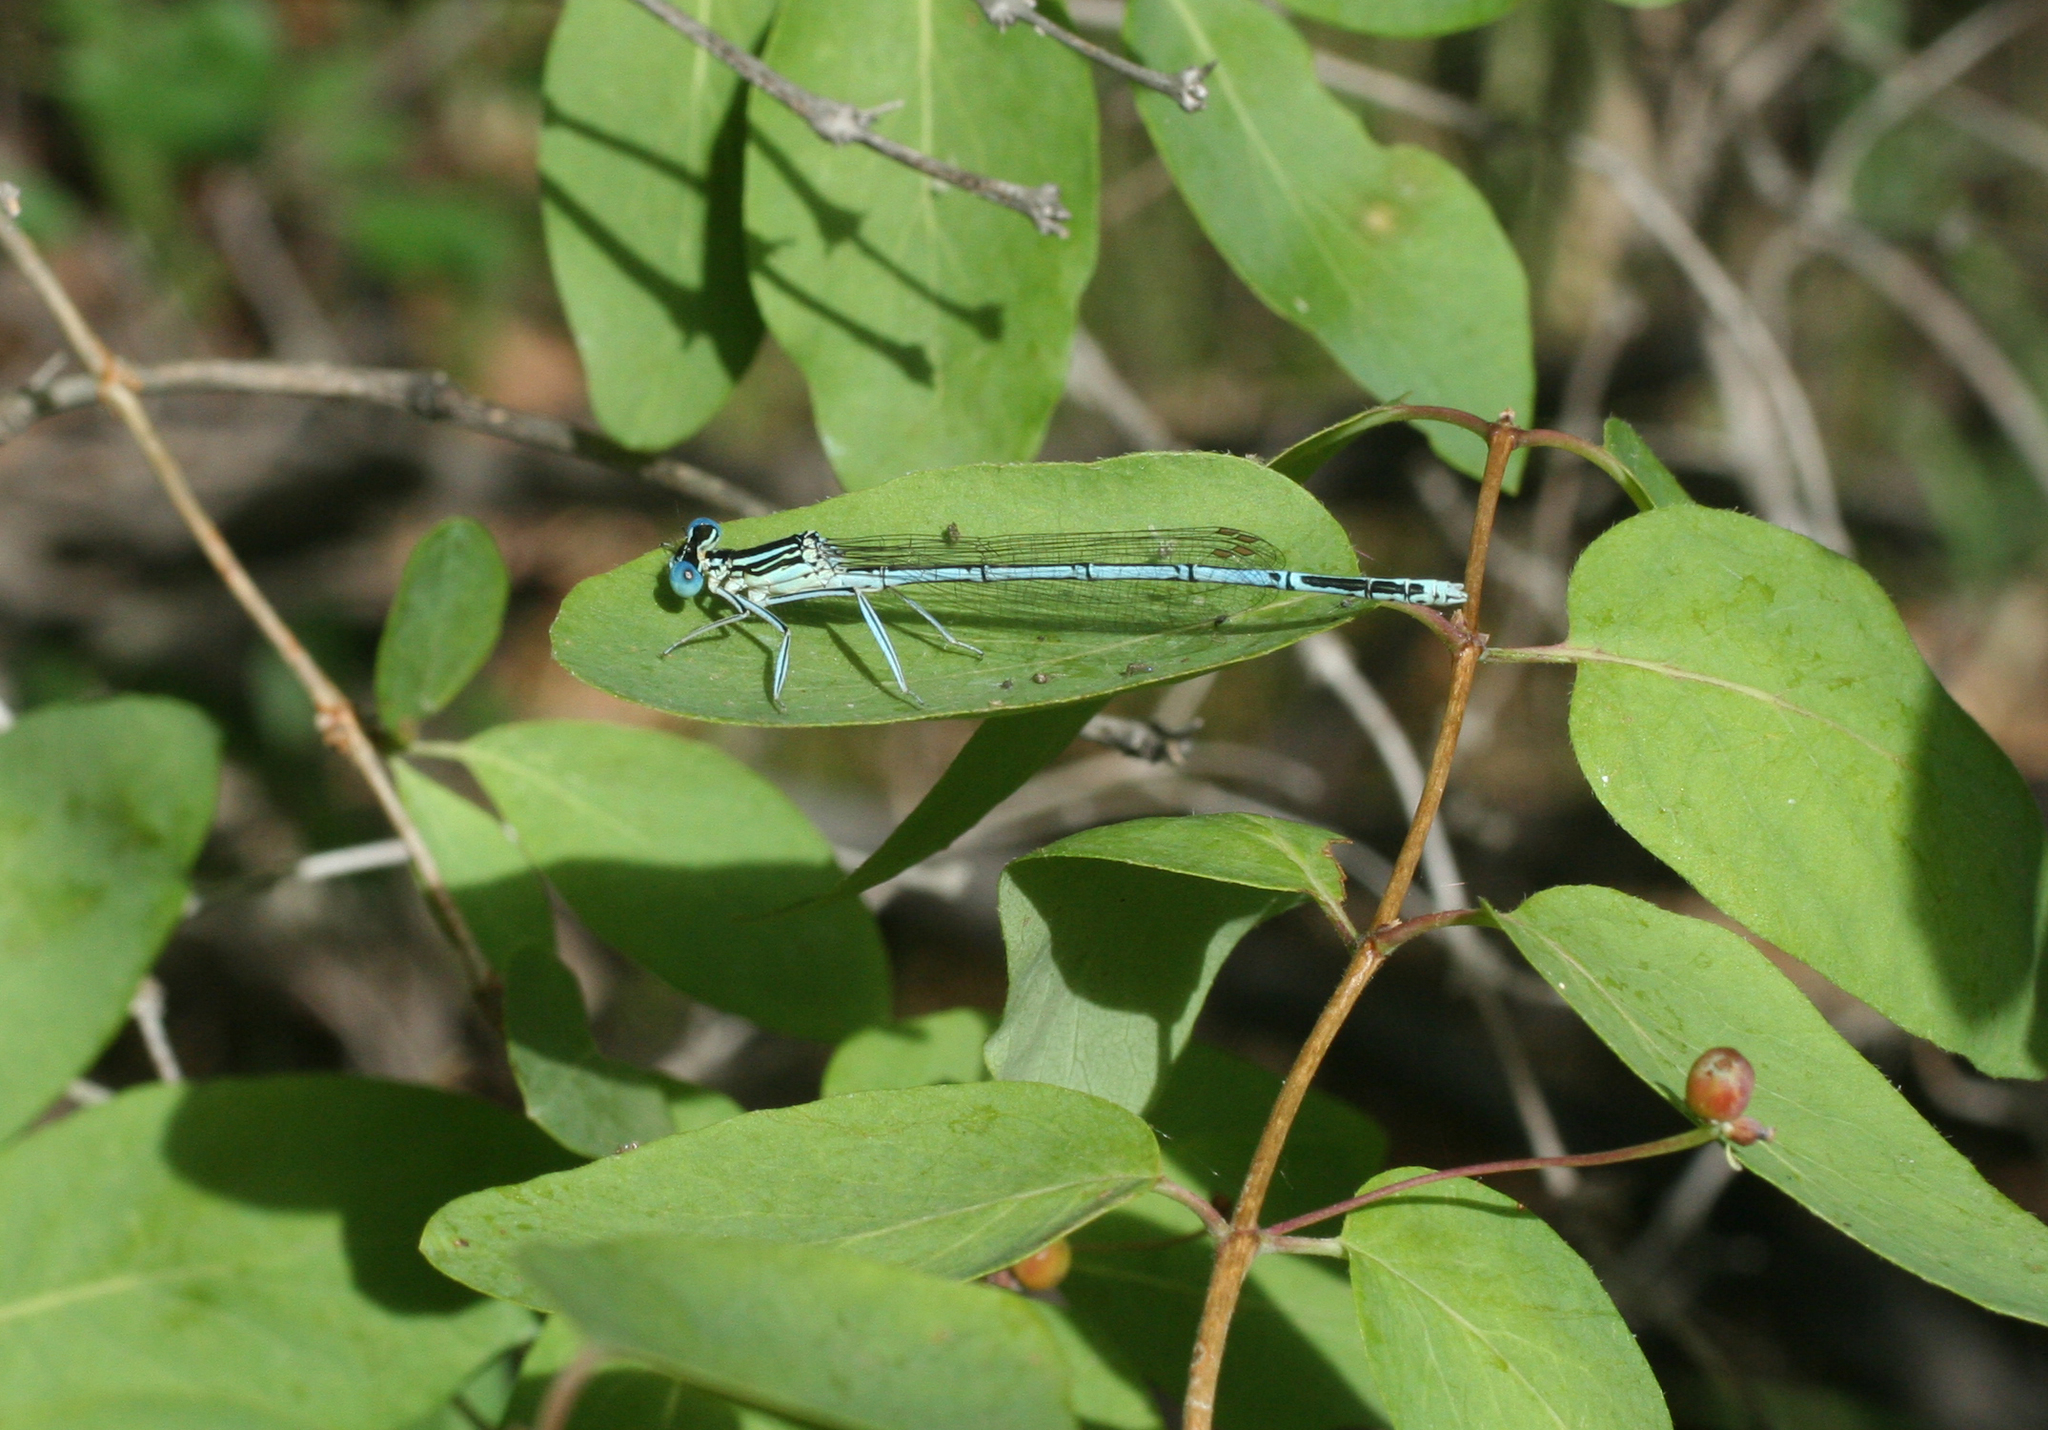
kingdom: Animalia
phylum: Arthropoda
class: Insecta
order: Odonata
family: Platycnemididae
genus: Platycnemis
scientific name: Platycnemis pennipes
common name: White-legged damselfly
